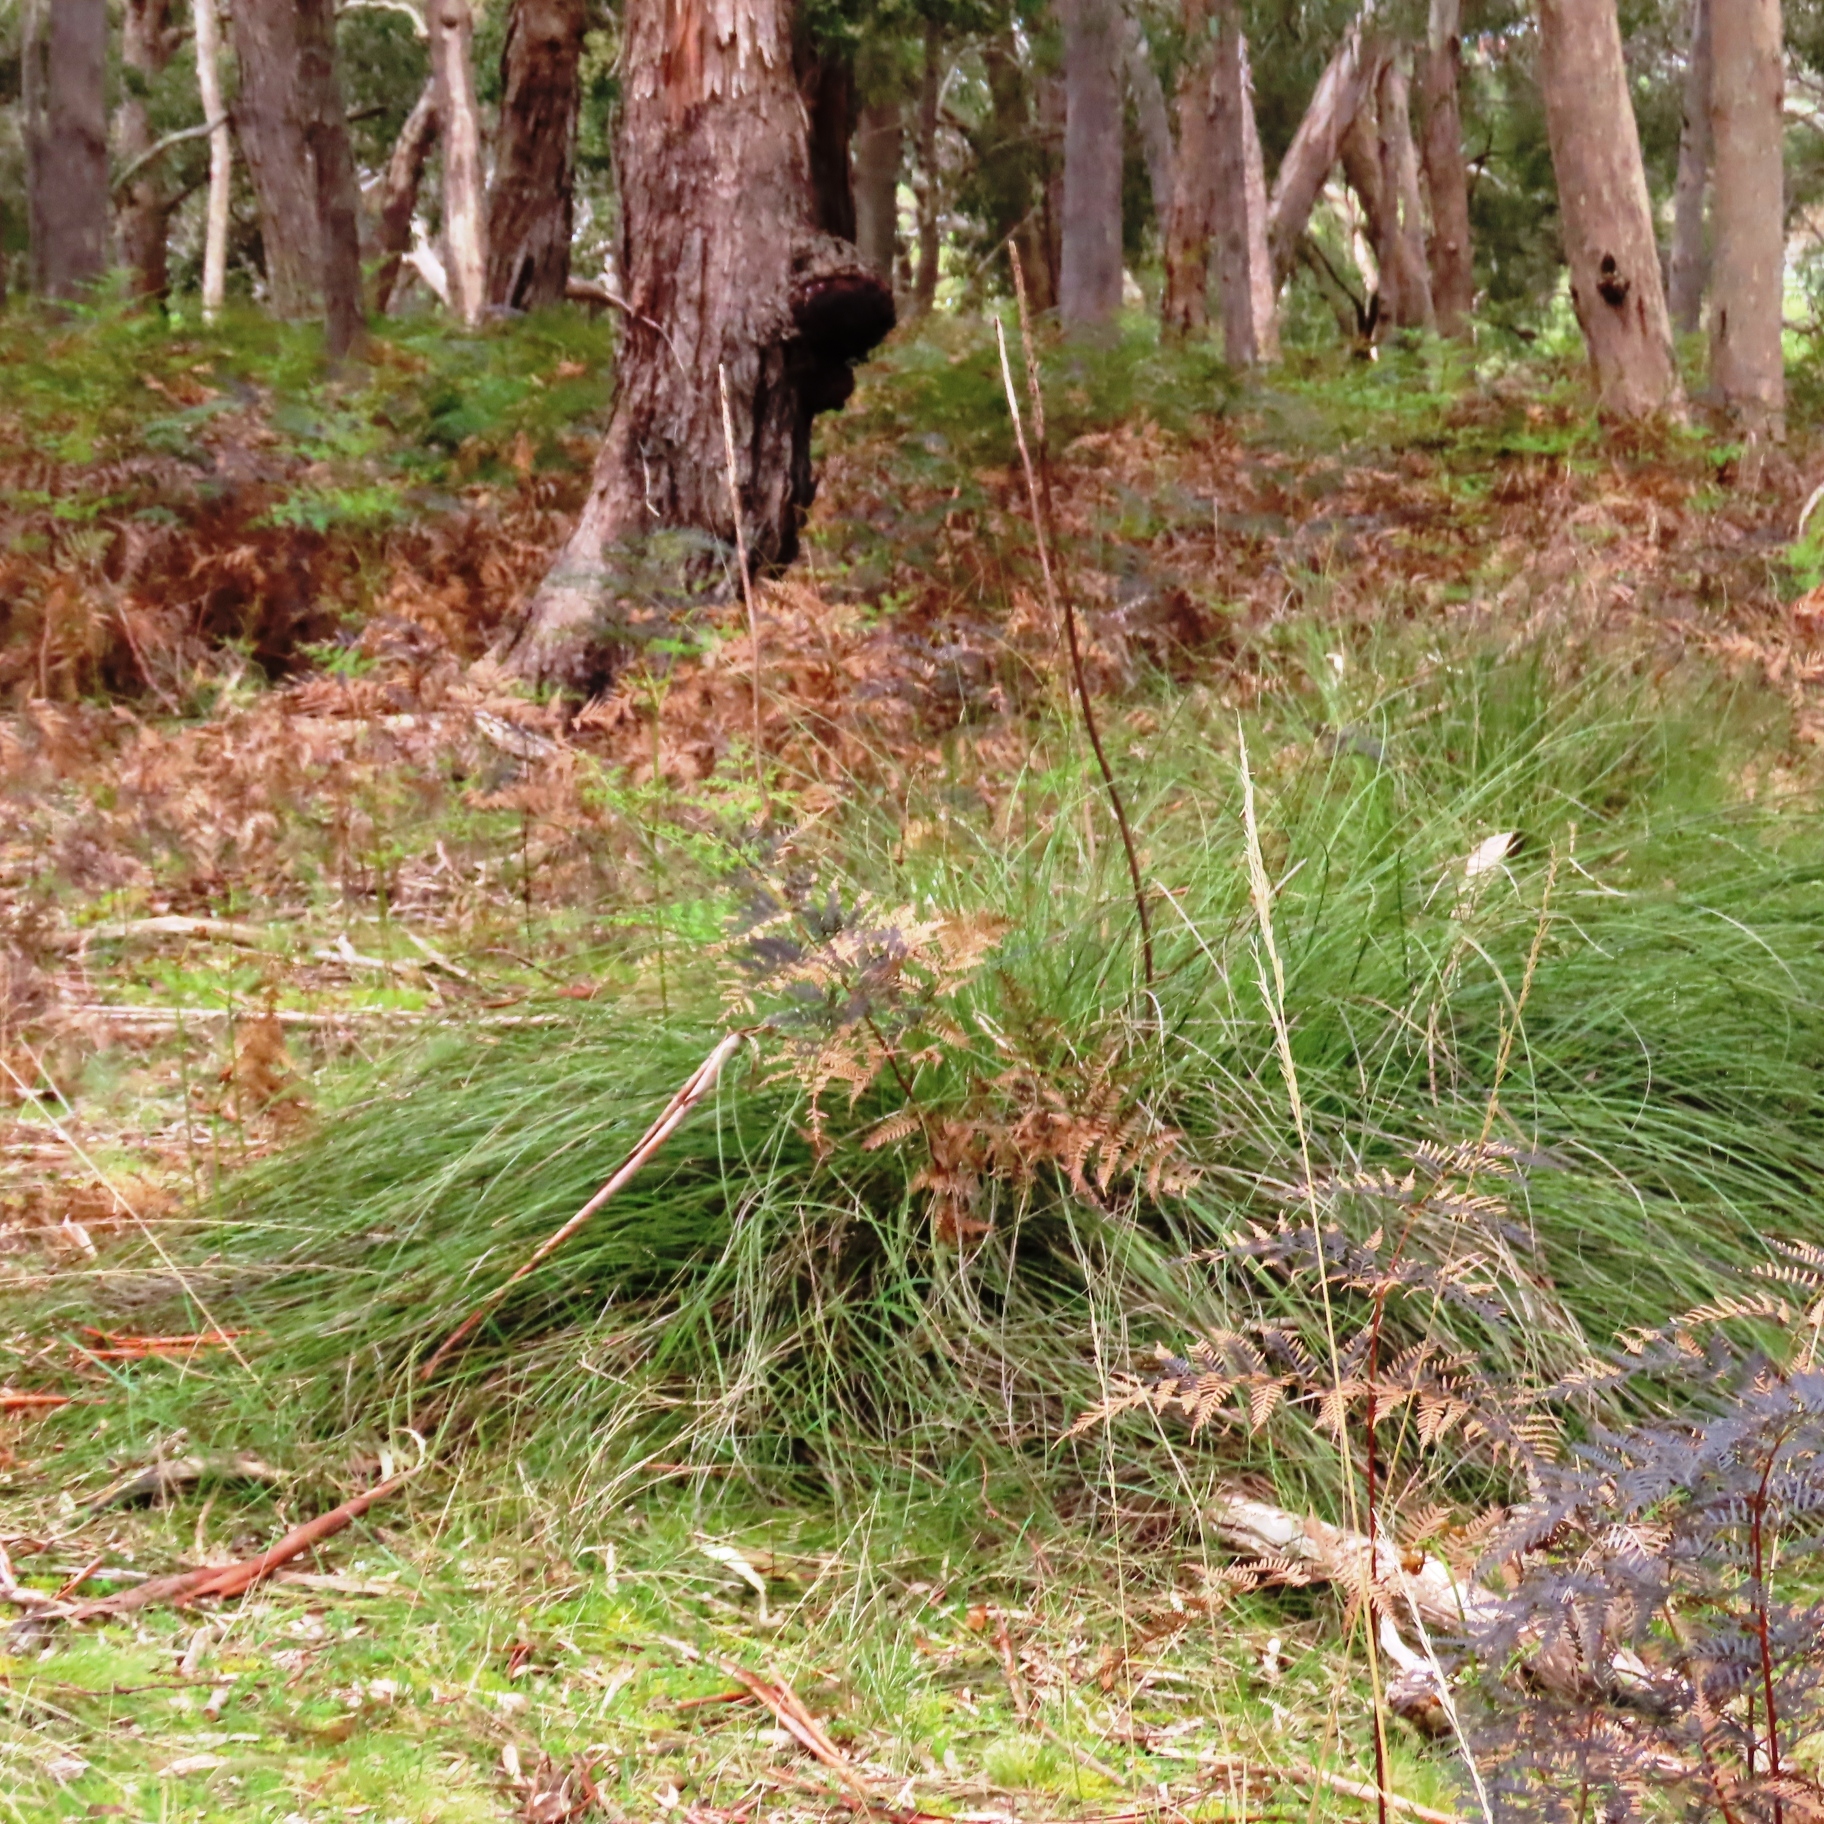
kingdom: Plantae
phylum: Tracheophyta
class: Liliopsida
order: Asparagales
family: Asphodelaceae
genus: Xanthorrhoea
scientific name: Xanthorrhoea minor
